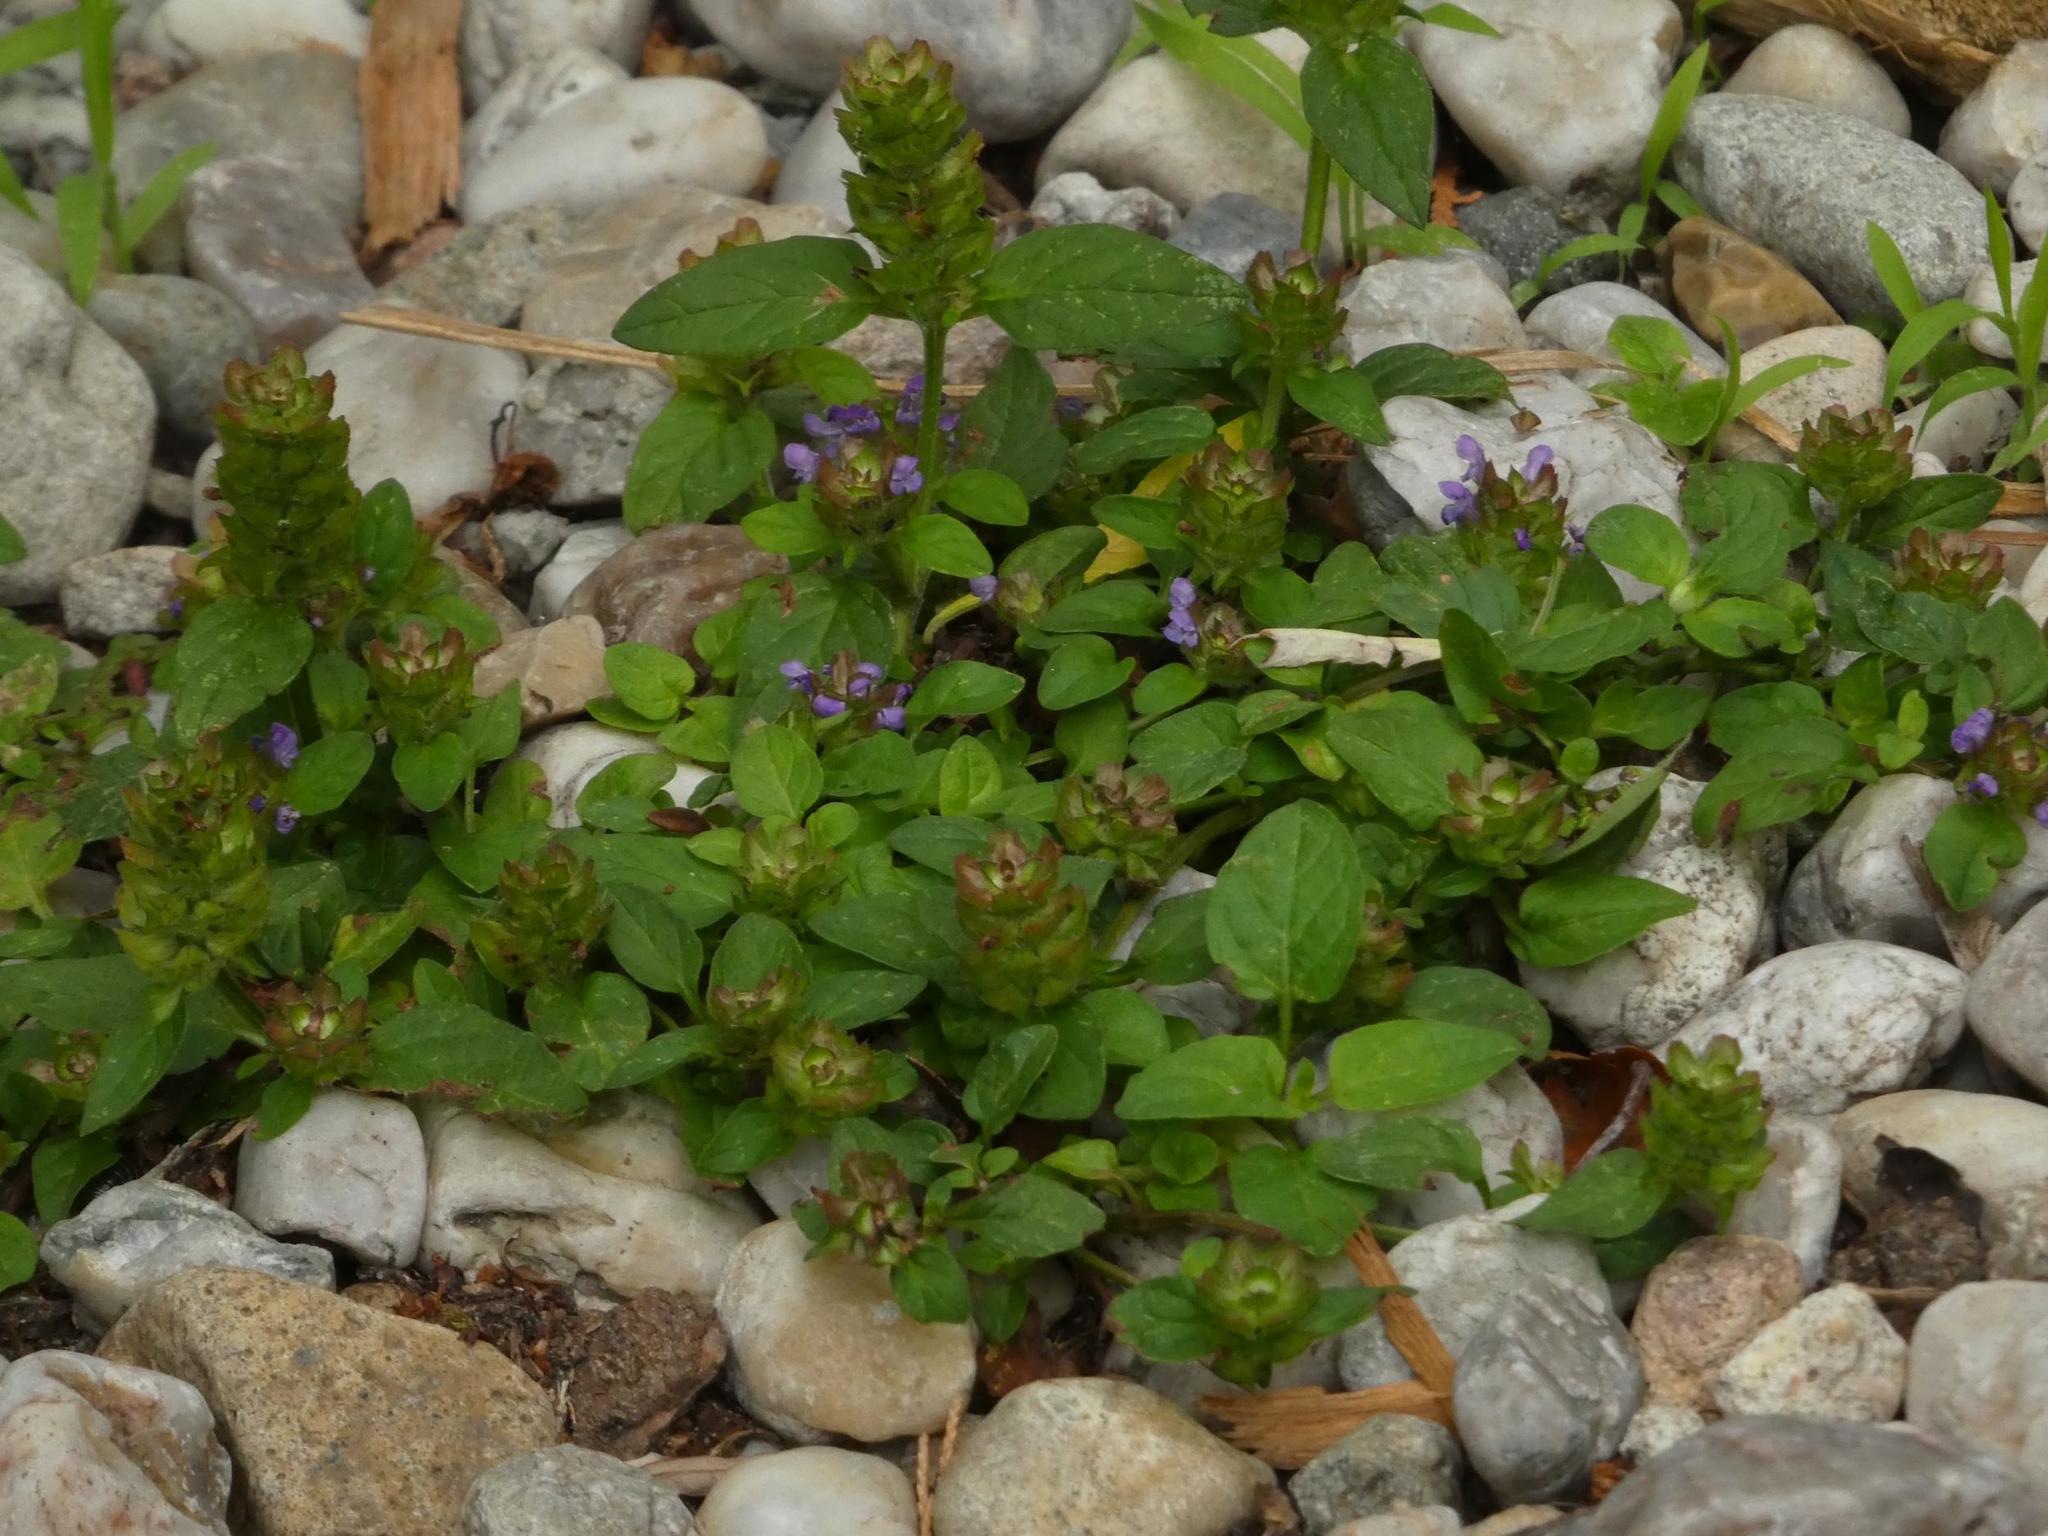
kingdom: Plantae
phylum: Tracheophyta
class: Magnoliopsida
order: Lamiales
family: Lamiaceae
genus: Prunella
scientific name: Prunella vulgaris
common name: Heal-all
